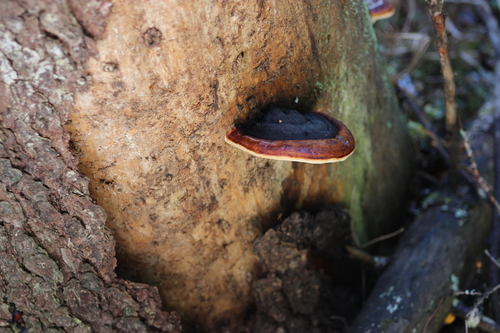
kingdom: Fungi
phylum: Basidiomycota
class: Agaricomycetes
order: Polyporales
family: Fomitopsidaceae
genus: Fomitopsis
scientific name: Fomitopsis pinicola
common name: Red-belted bracket
